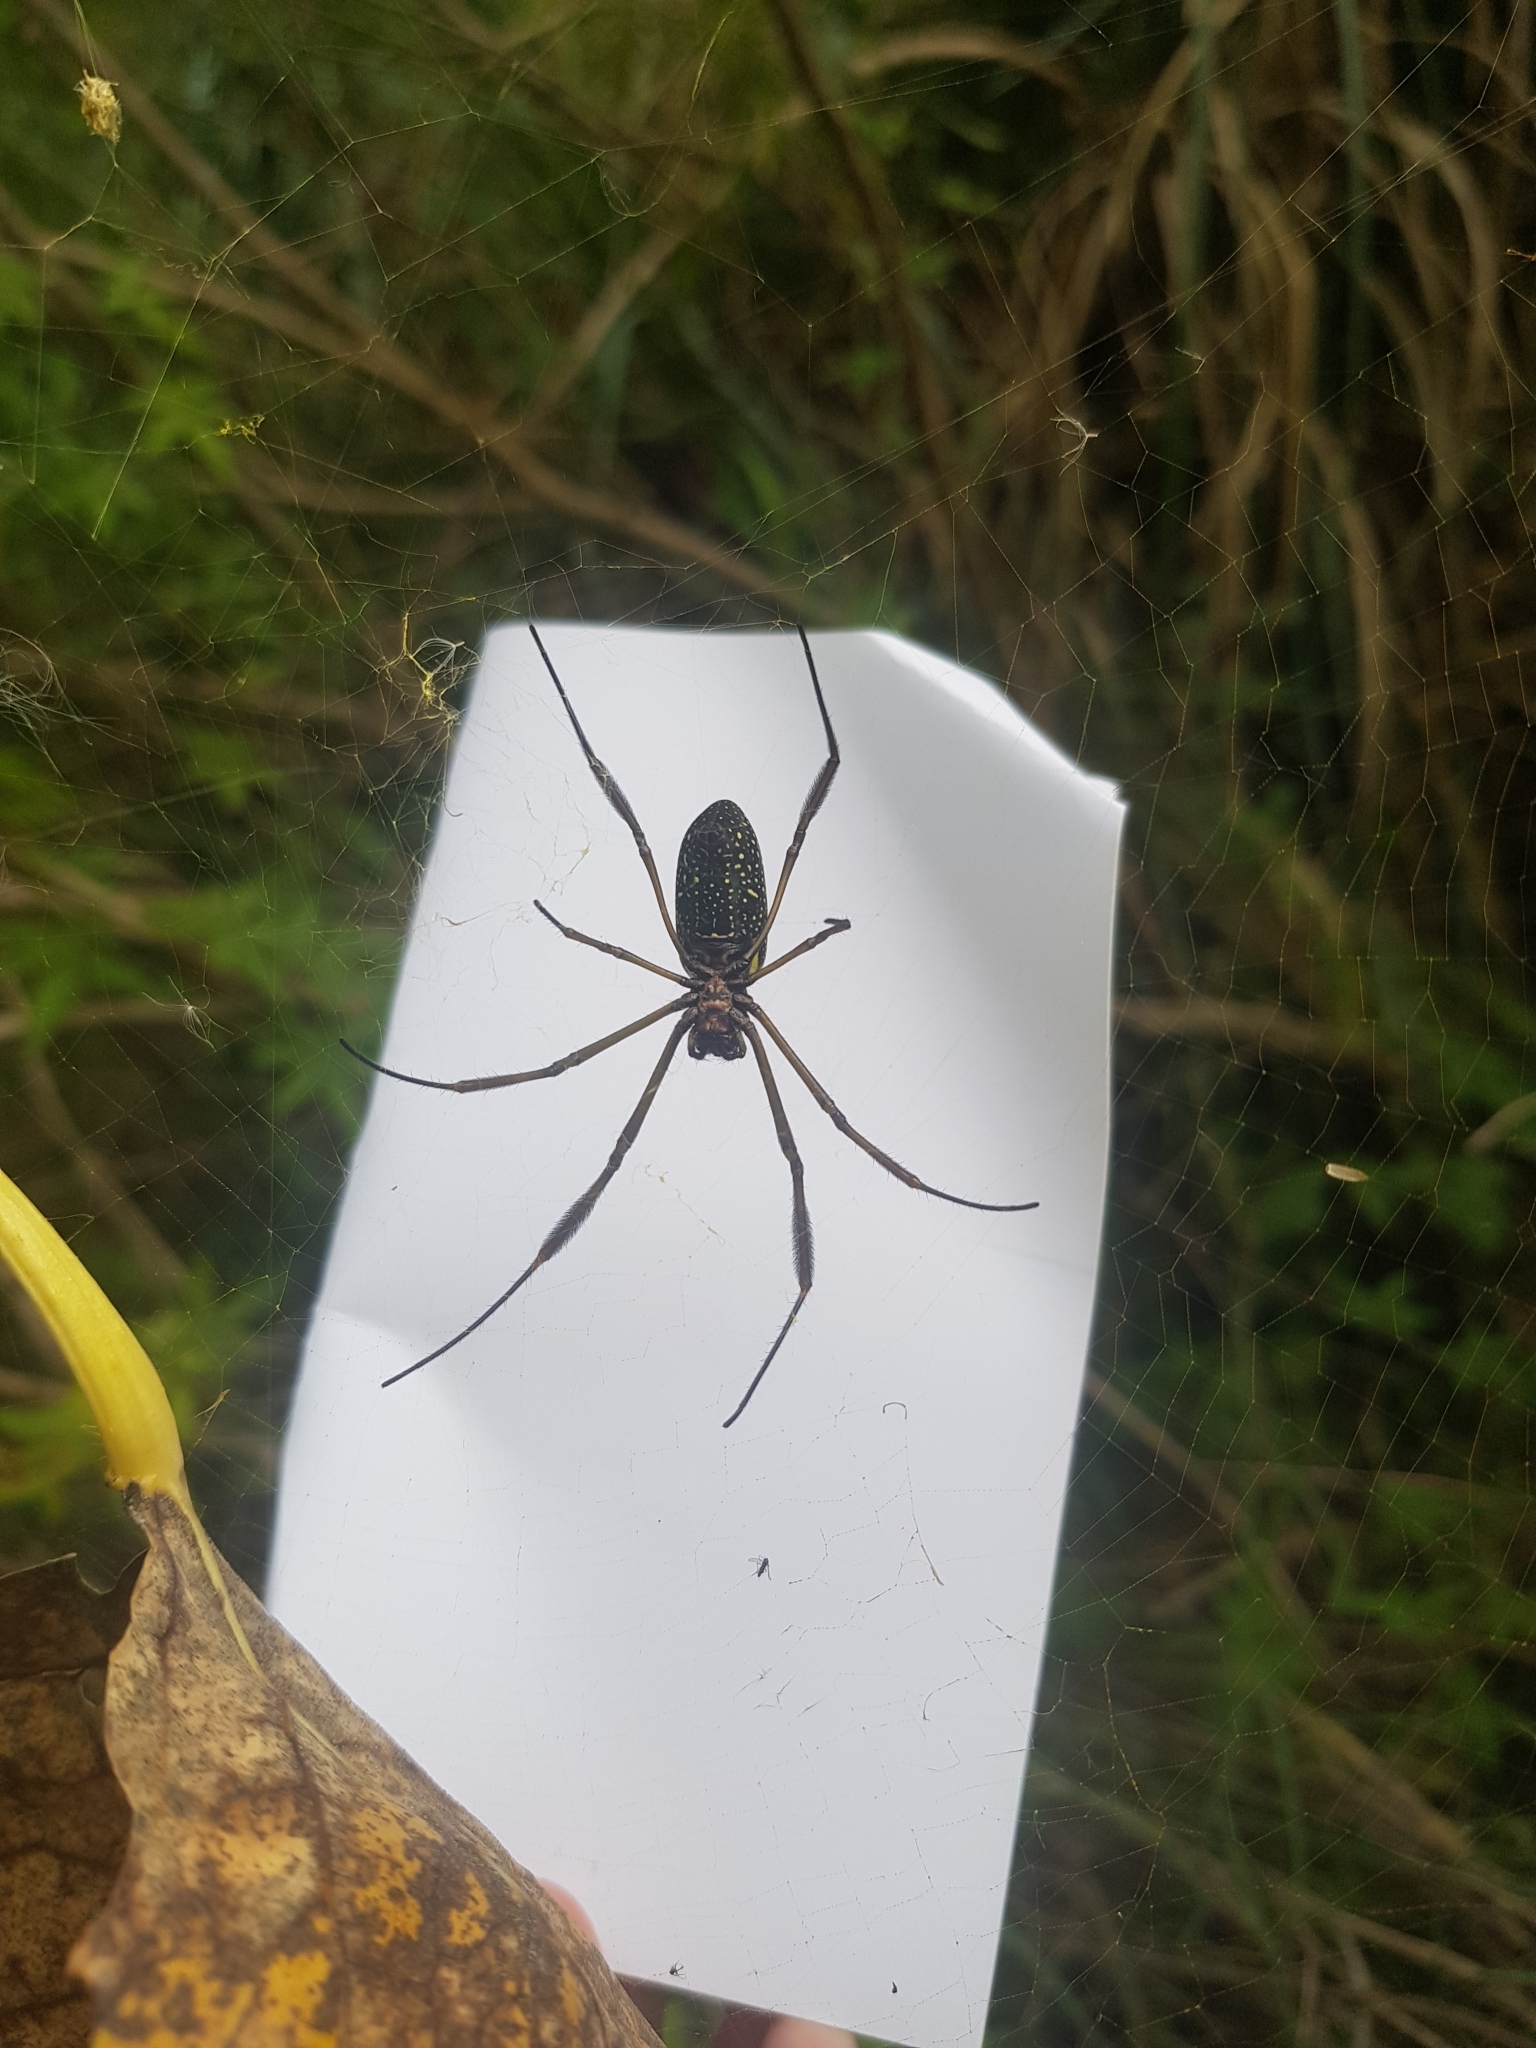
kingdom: Animalia
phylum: Arthropoda
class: Arachnida
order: Araneae
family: Araneidae
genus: Trichonephila
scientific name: Trichonephila clavipes
